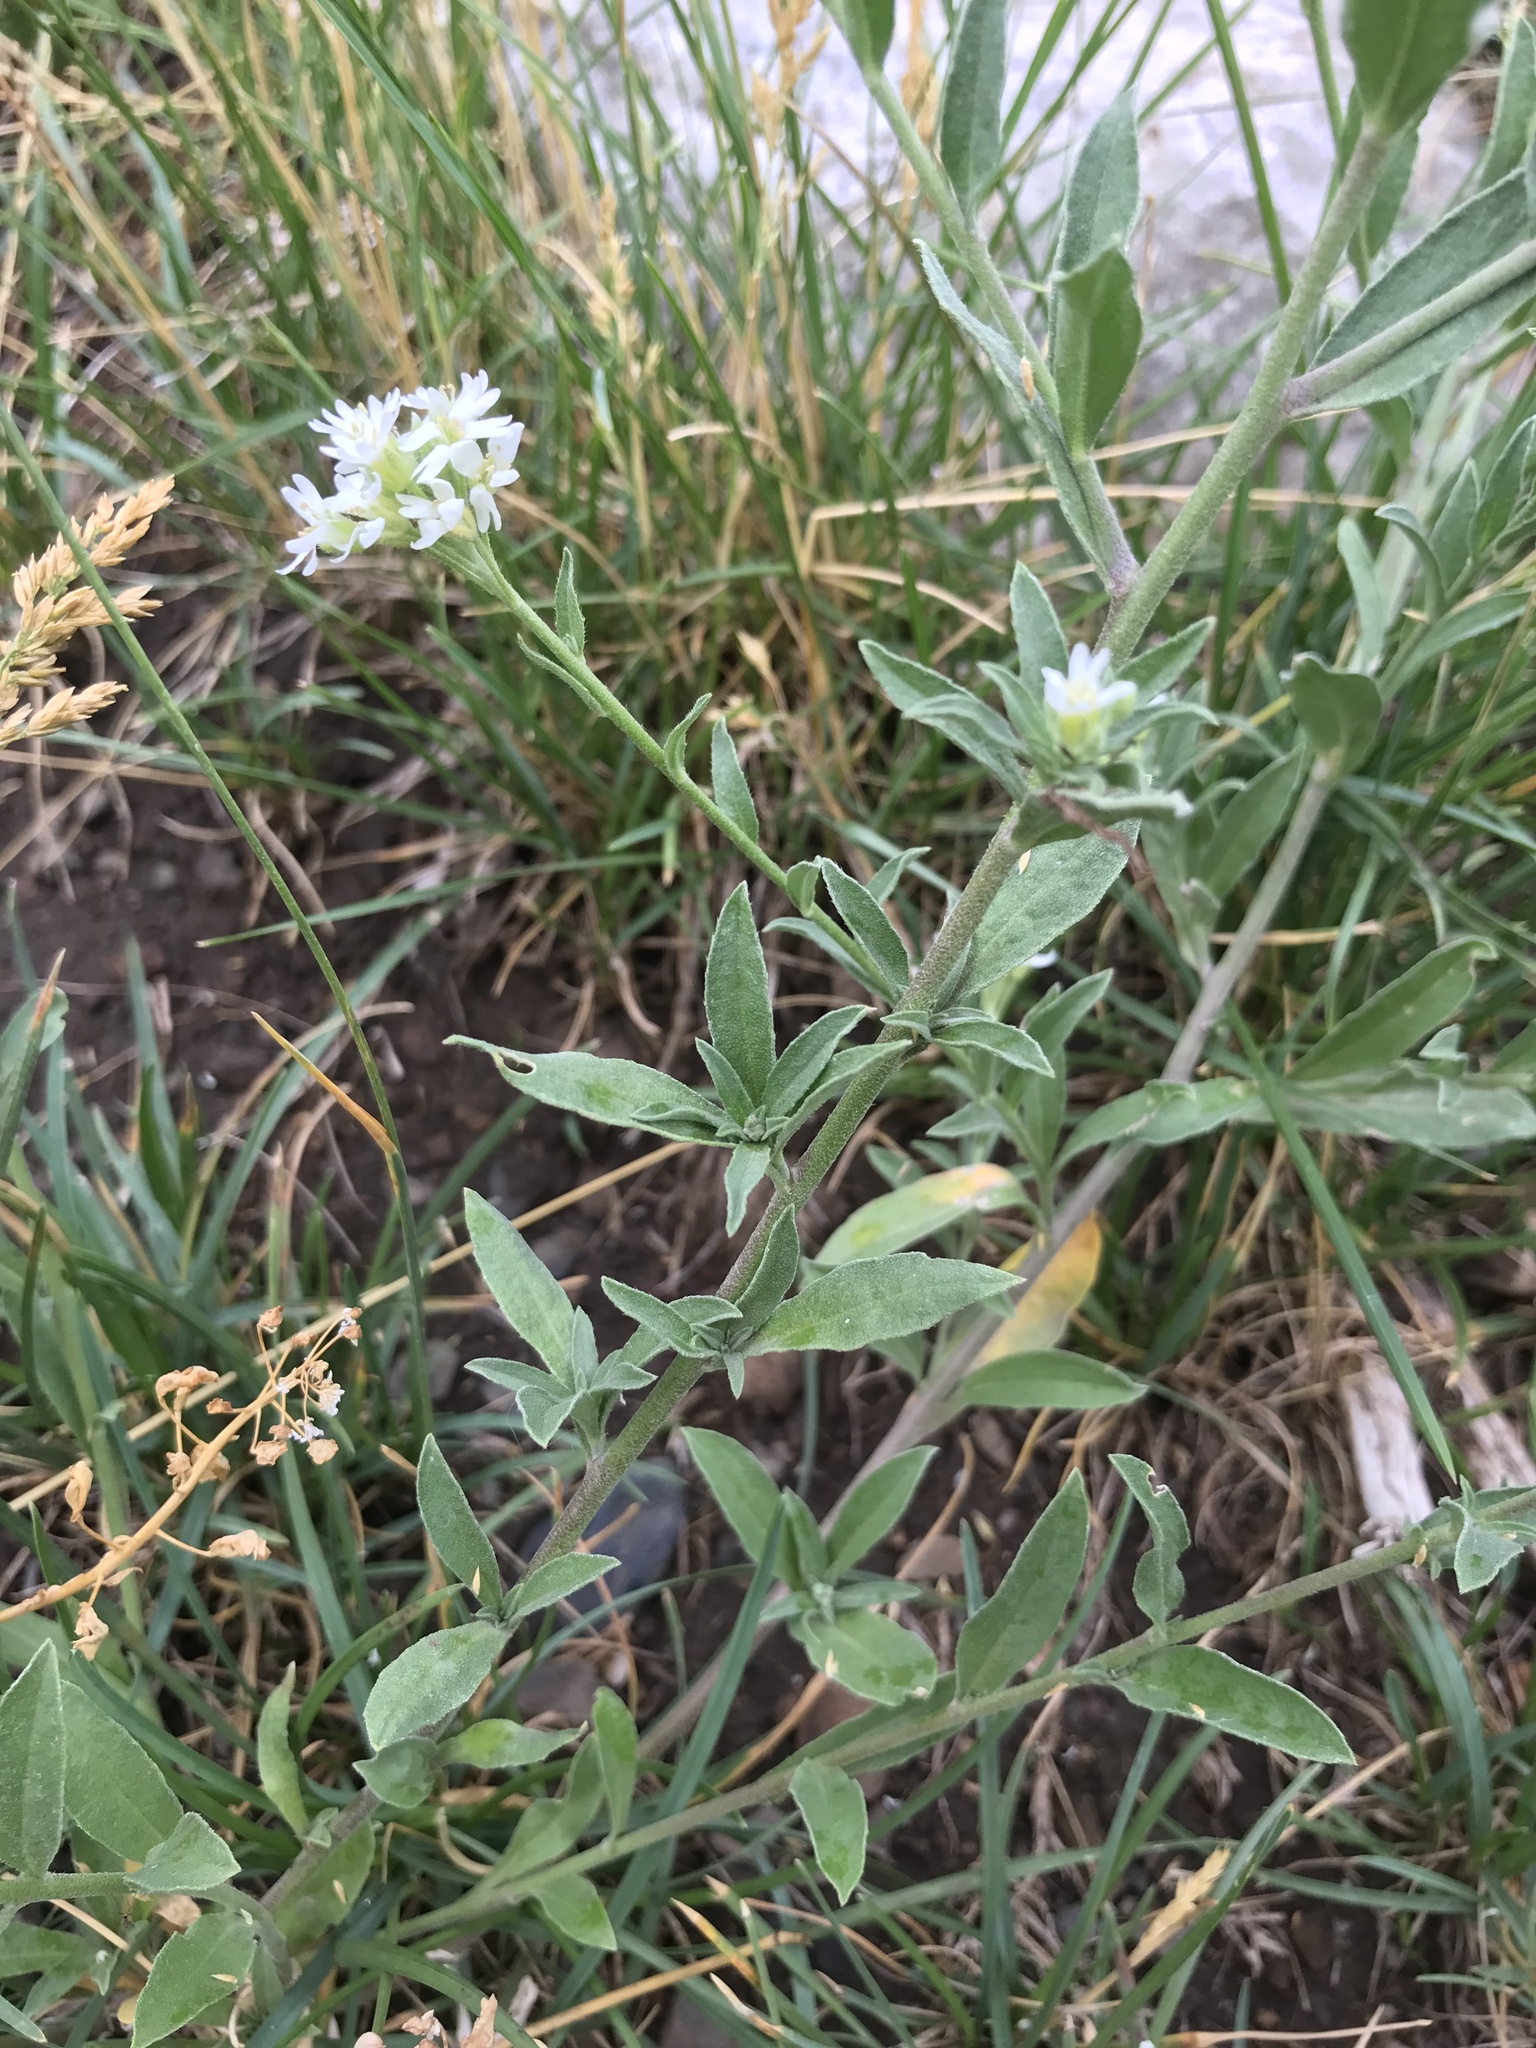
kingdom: Plantae
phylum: Tracheophyta
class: Magnoliopsida
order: Brassicales
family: Brassicaceae
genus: Berteroa
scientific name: Berteroa incana
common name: Hoary alison
